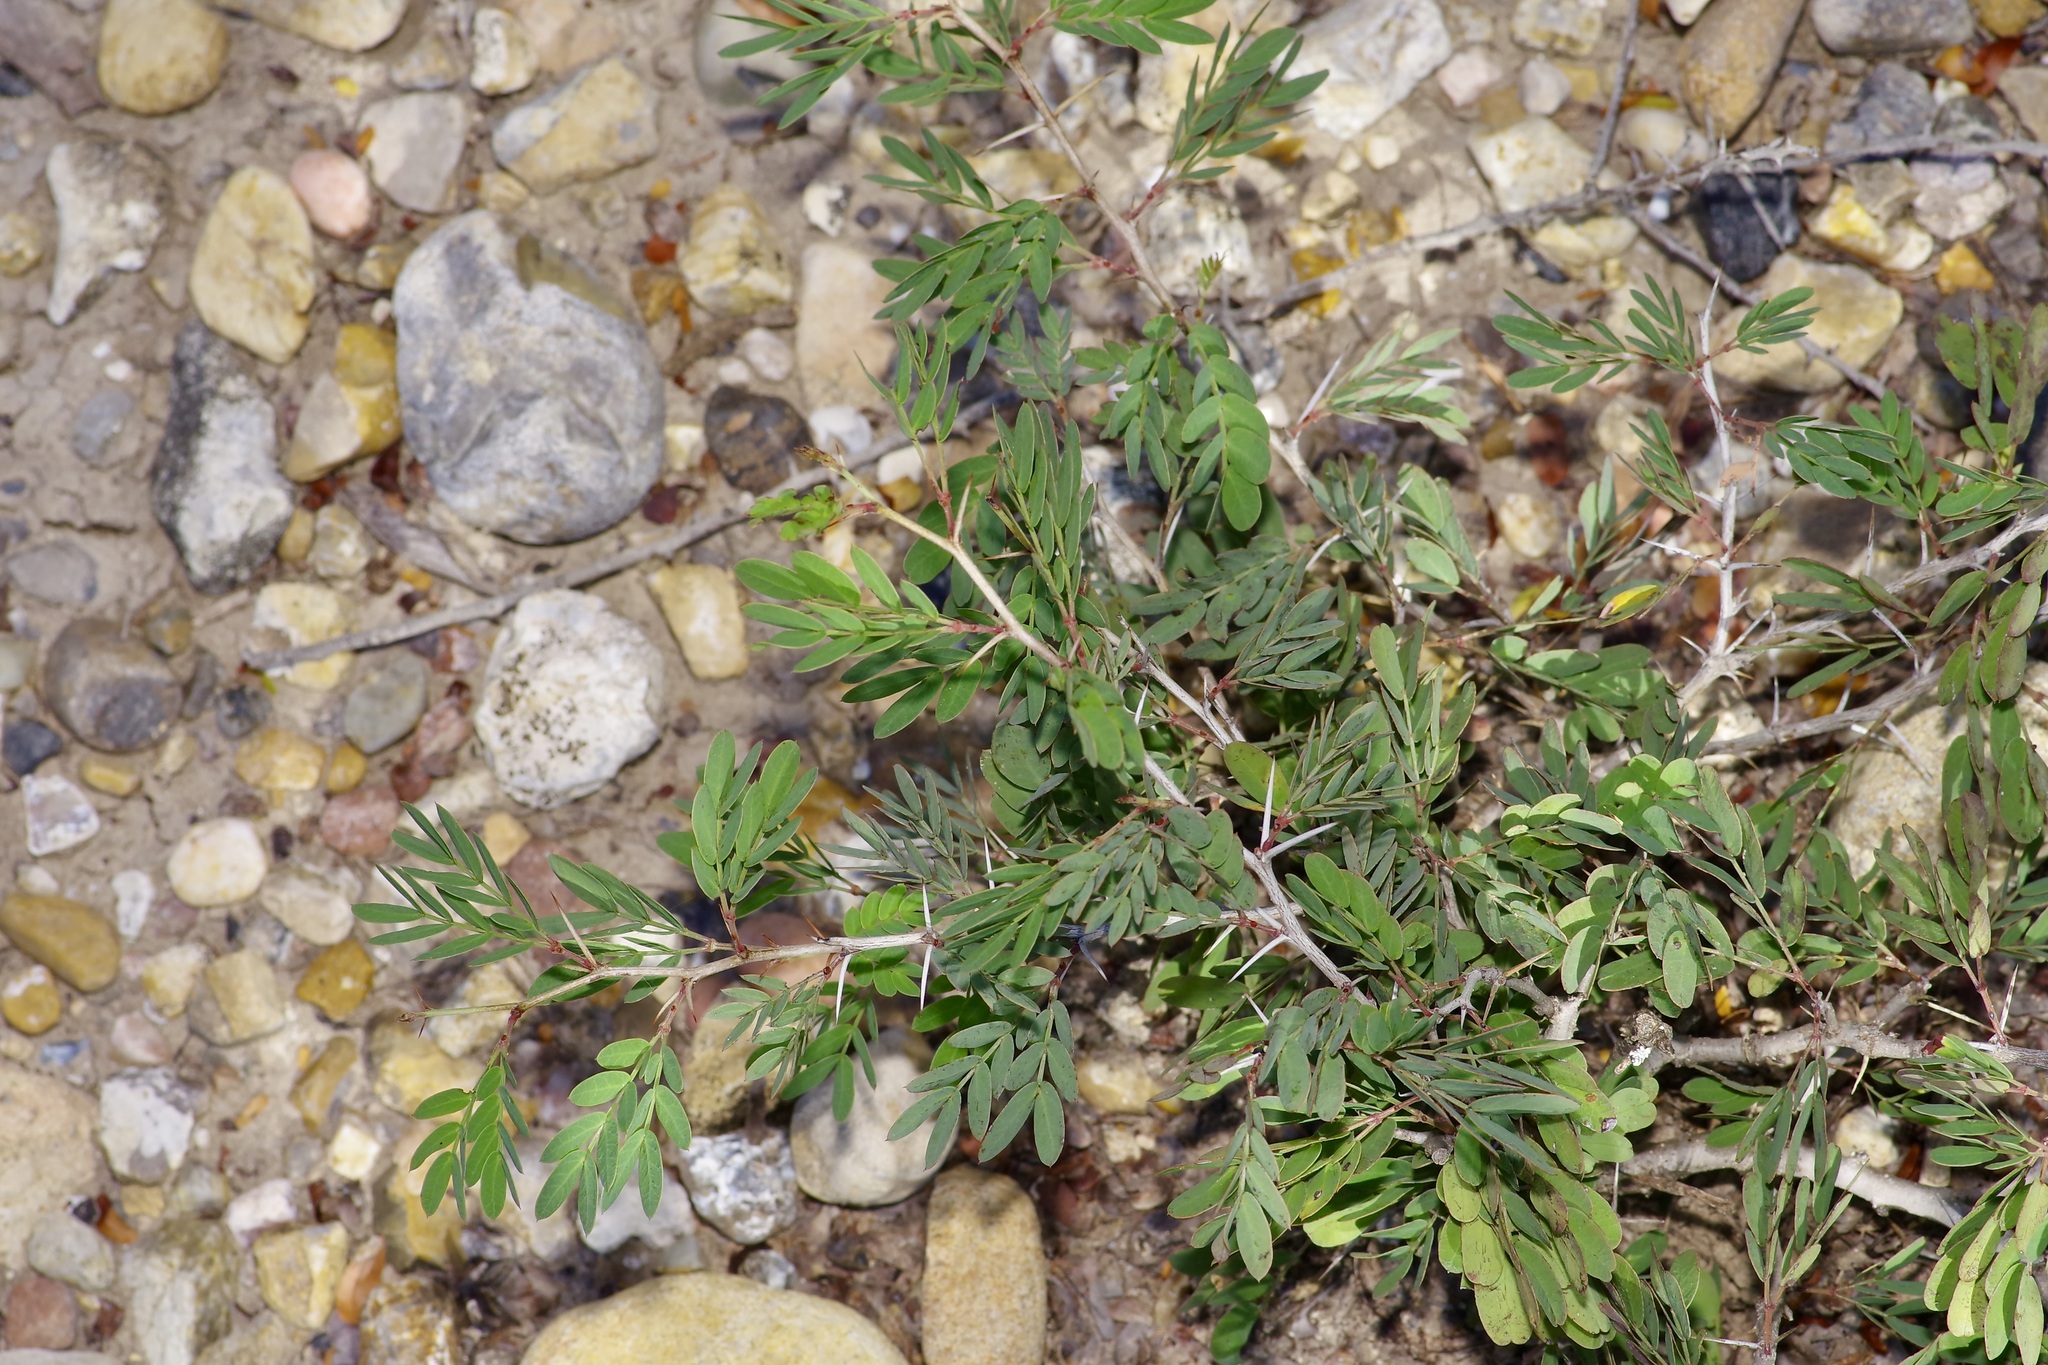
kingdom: Plantae
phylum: Tracheophyta
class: Magnoliopsida
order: Fabales
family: Fabaceae
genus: Vachellia
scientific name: Vachellia rigidula
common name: Blackbrush
